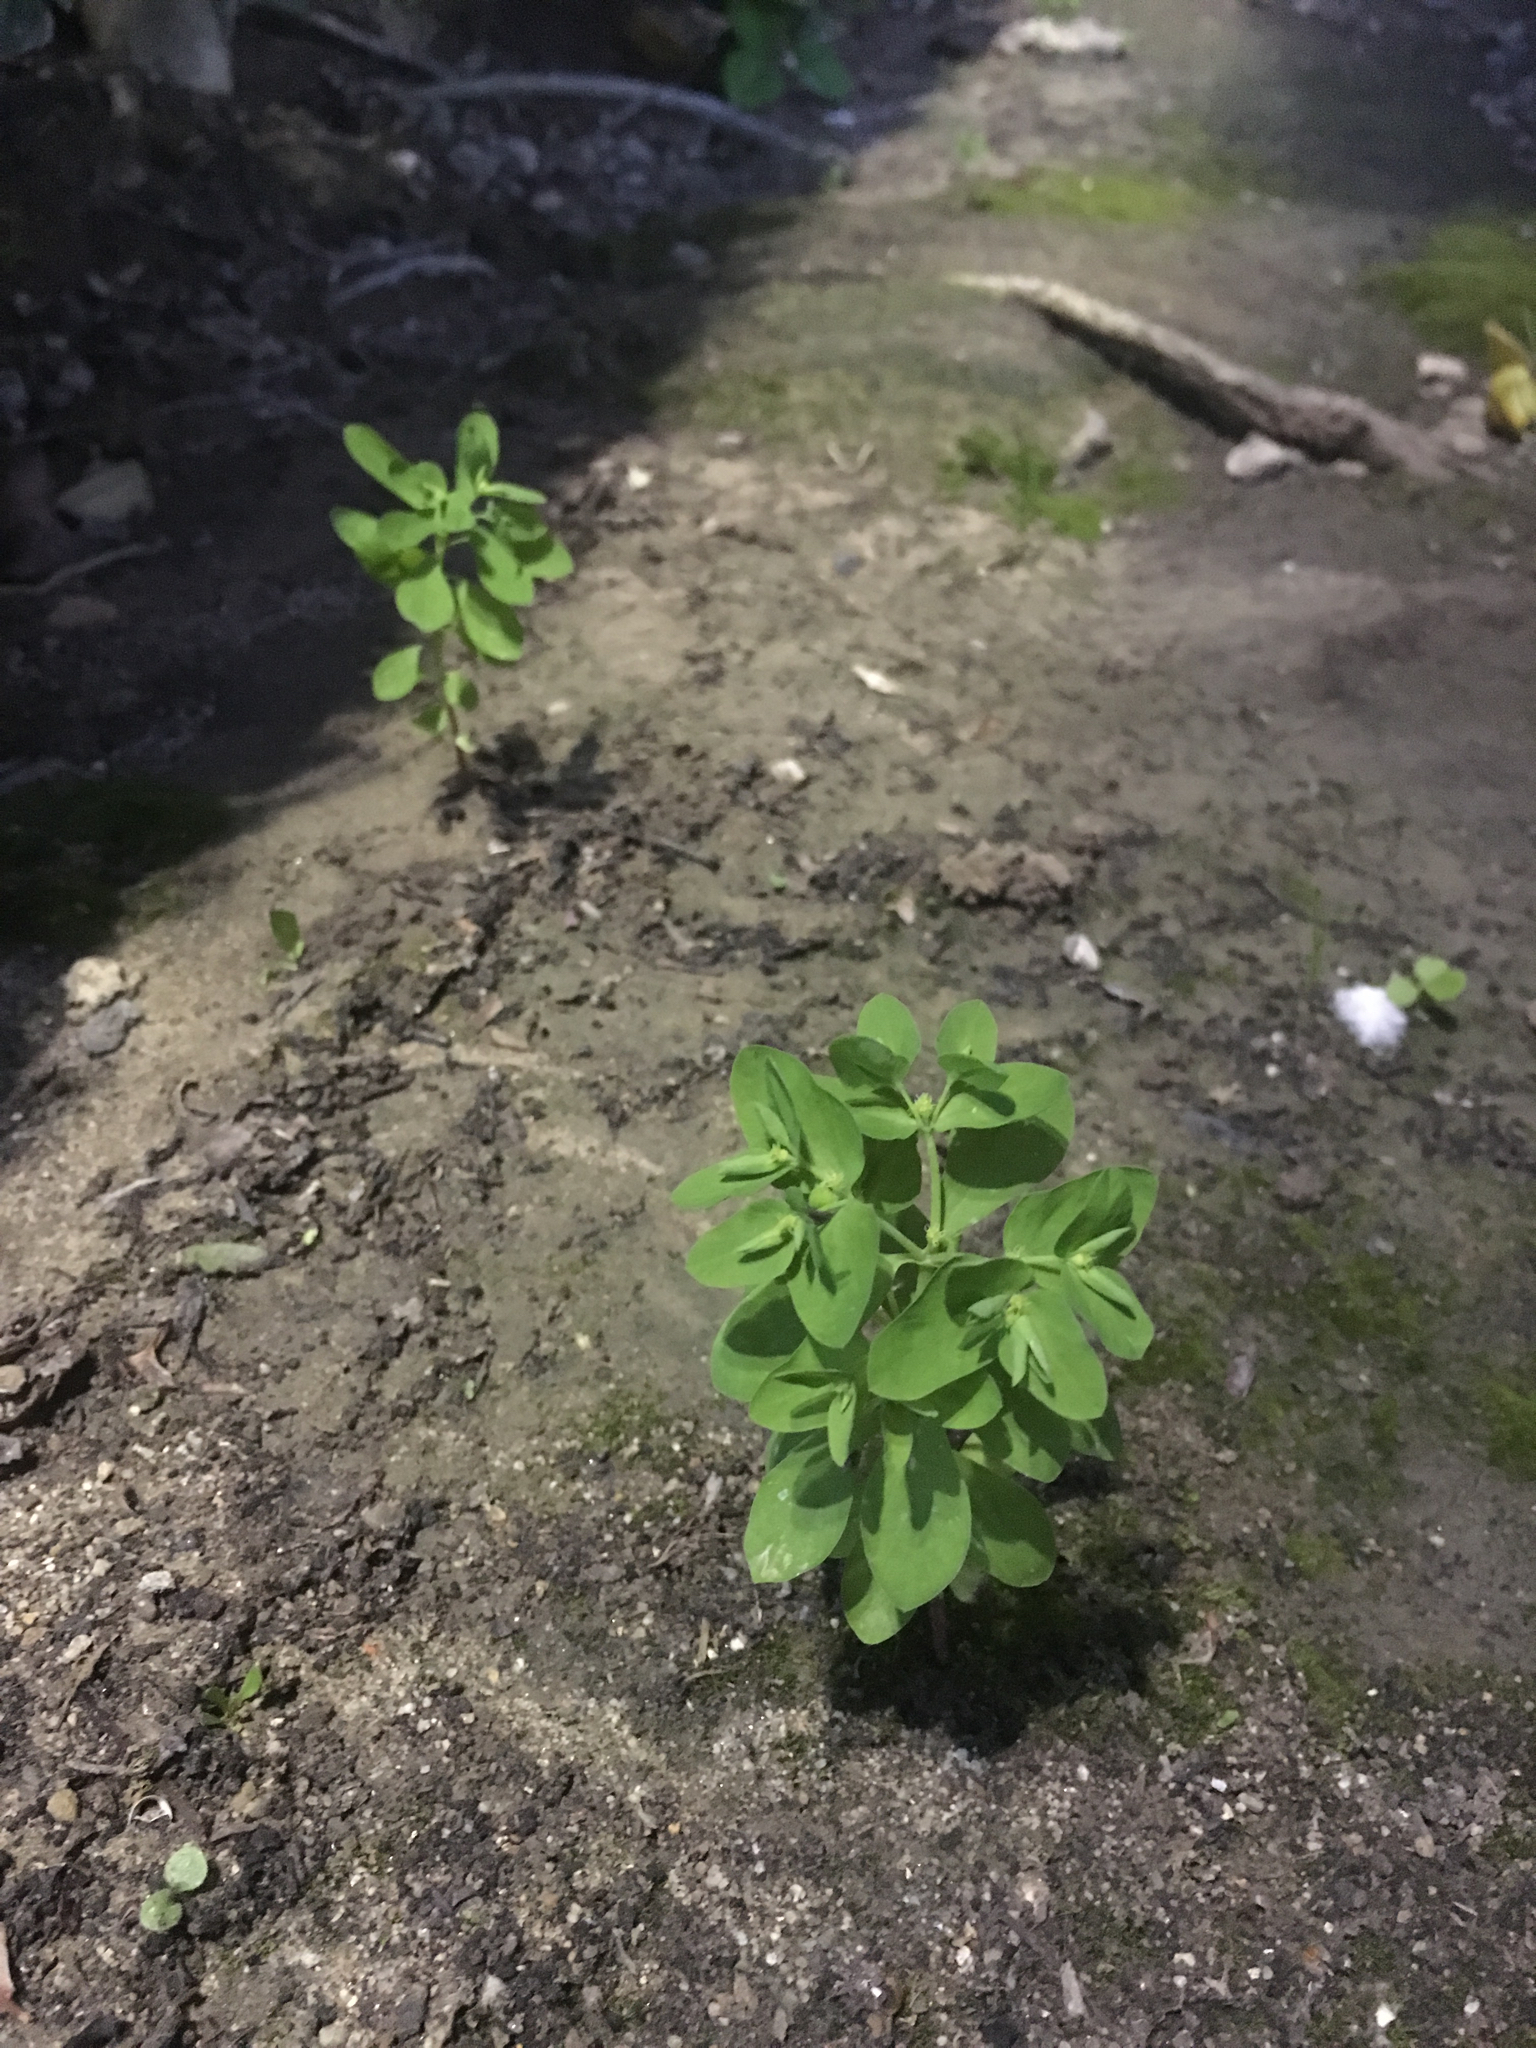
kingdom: Plantae
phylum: Tracheophyta
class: Magnoliopsida
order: Malpighiales
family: Euphorbiaceae
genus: Euphorbia
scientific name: Euphorbia peplus
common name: Petty spurge
